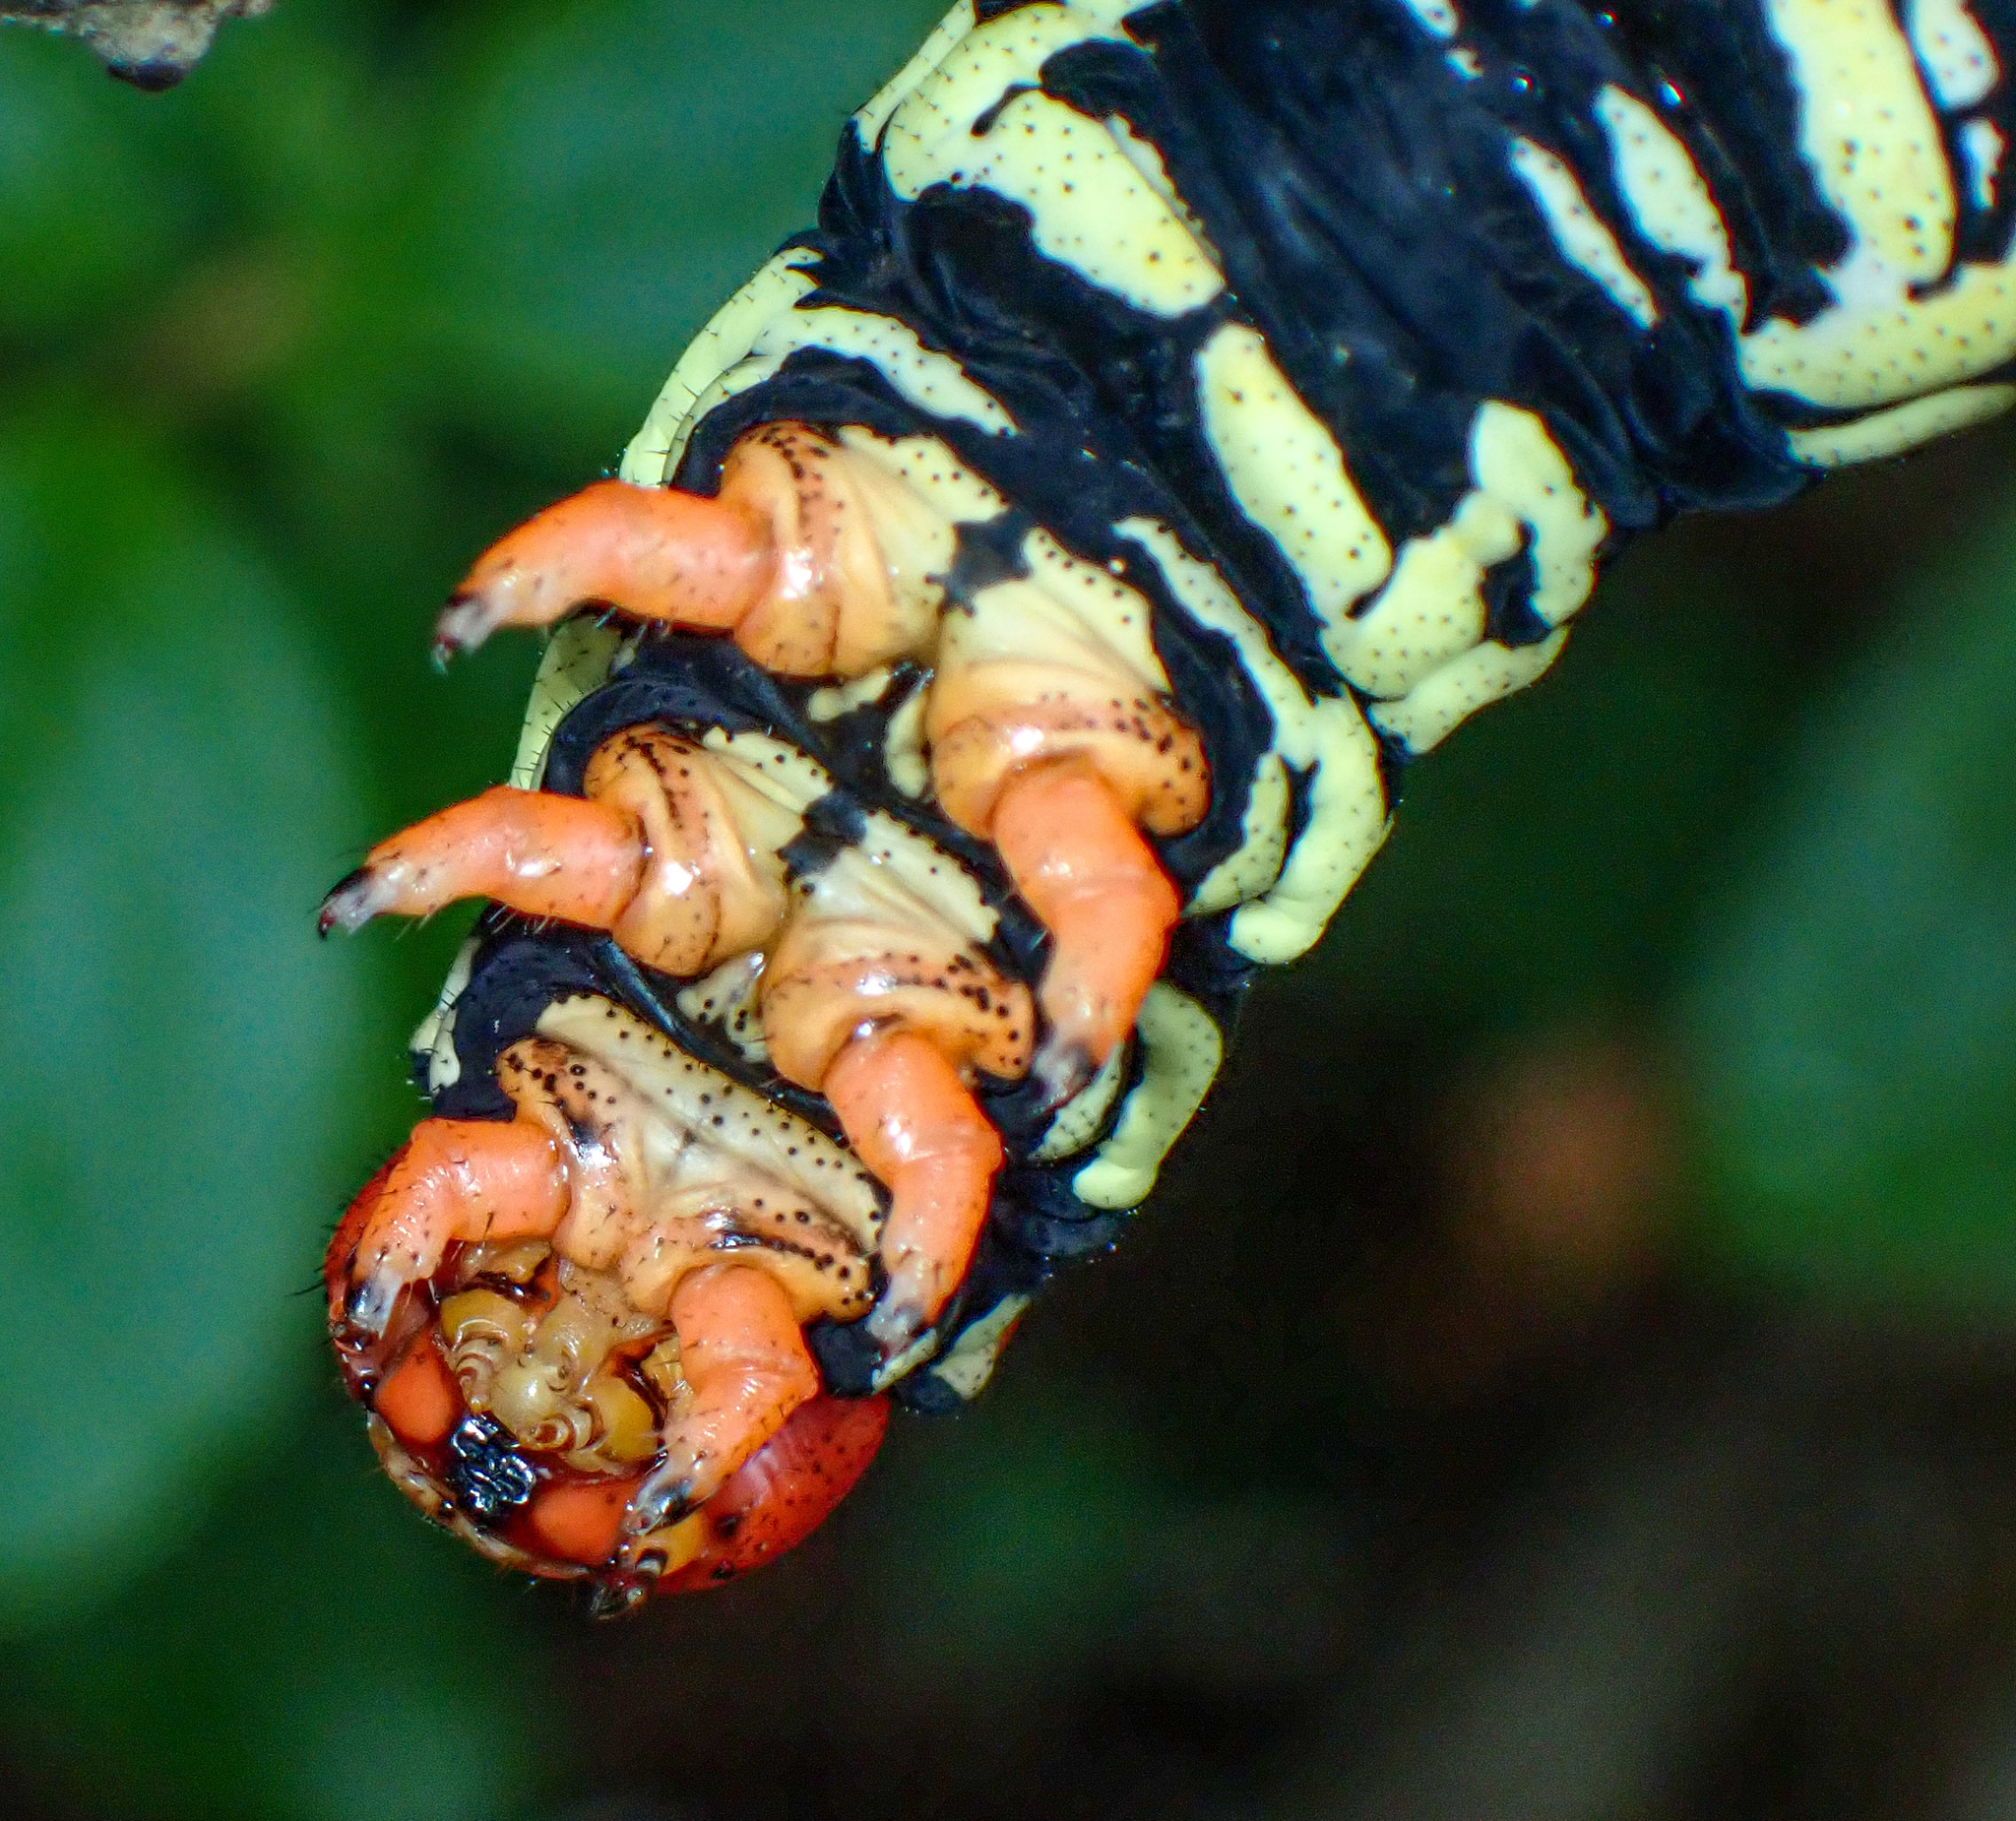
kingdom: Animalia
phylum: Arthropoda
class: Insecta
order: Lepidoptera
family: Sphingidae
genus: Pseudosphinx
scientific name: Pseudosphinx tetrio
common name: Tetrio sphinx
